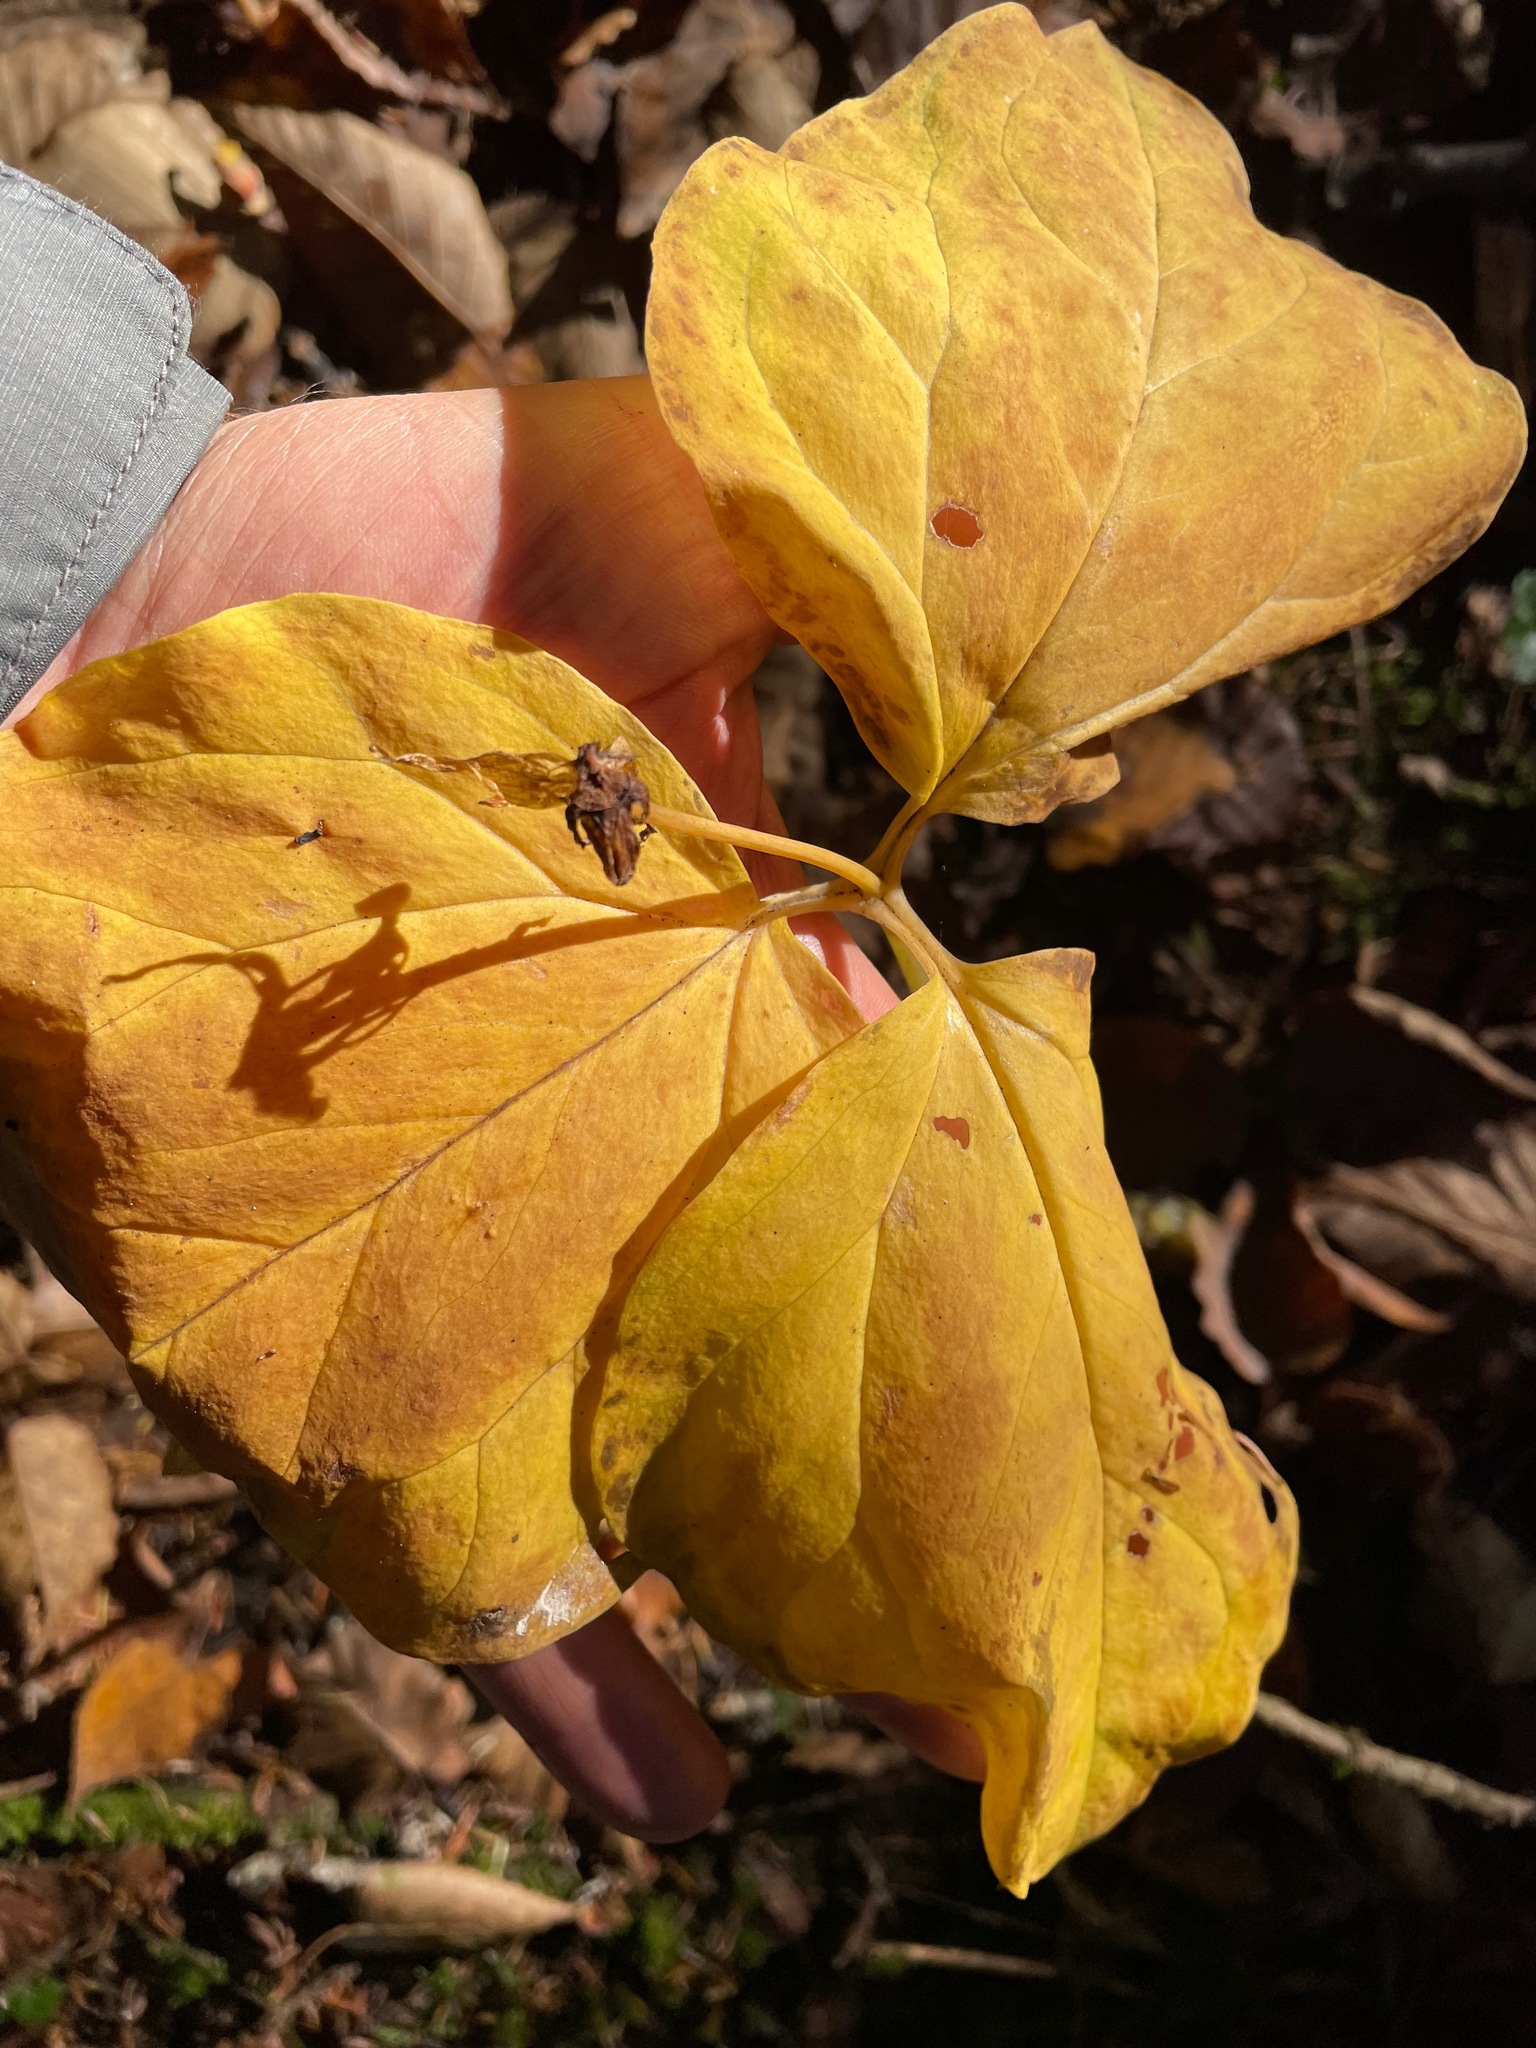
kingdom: Plantae
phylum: Tracheophyta
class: Liliopsida
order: Liliales
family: Melanthiaceae
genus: Trillium
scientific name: Trillium undulatum
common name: Paint trillium
